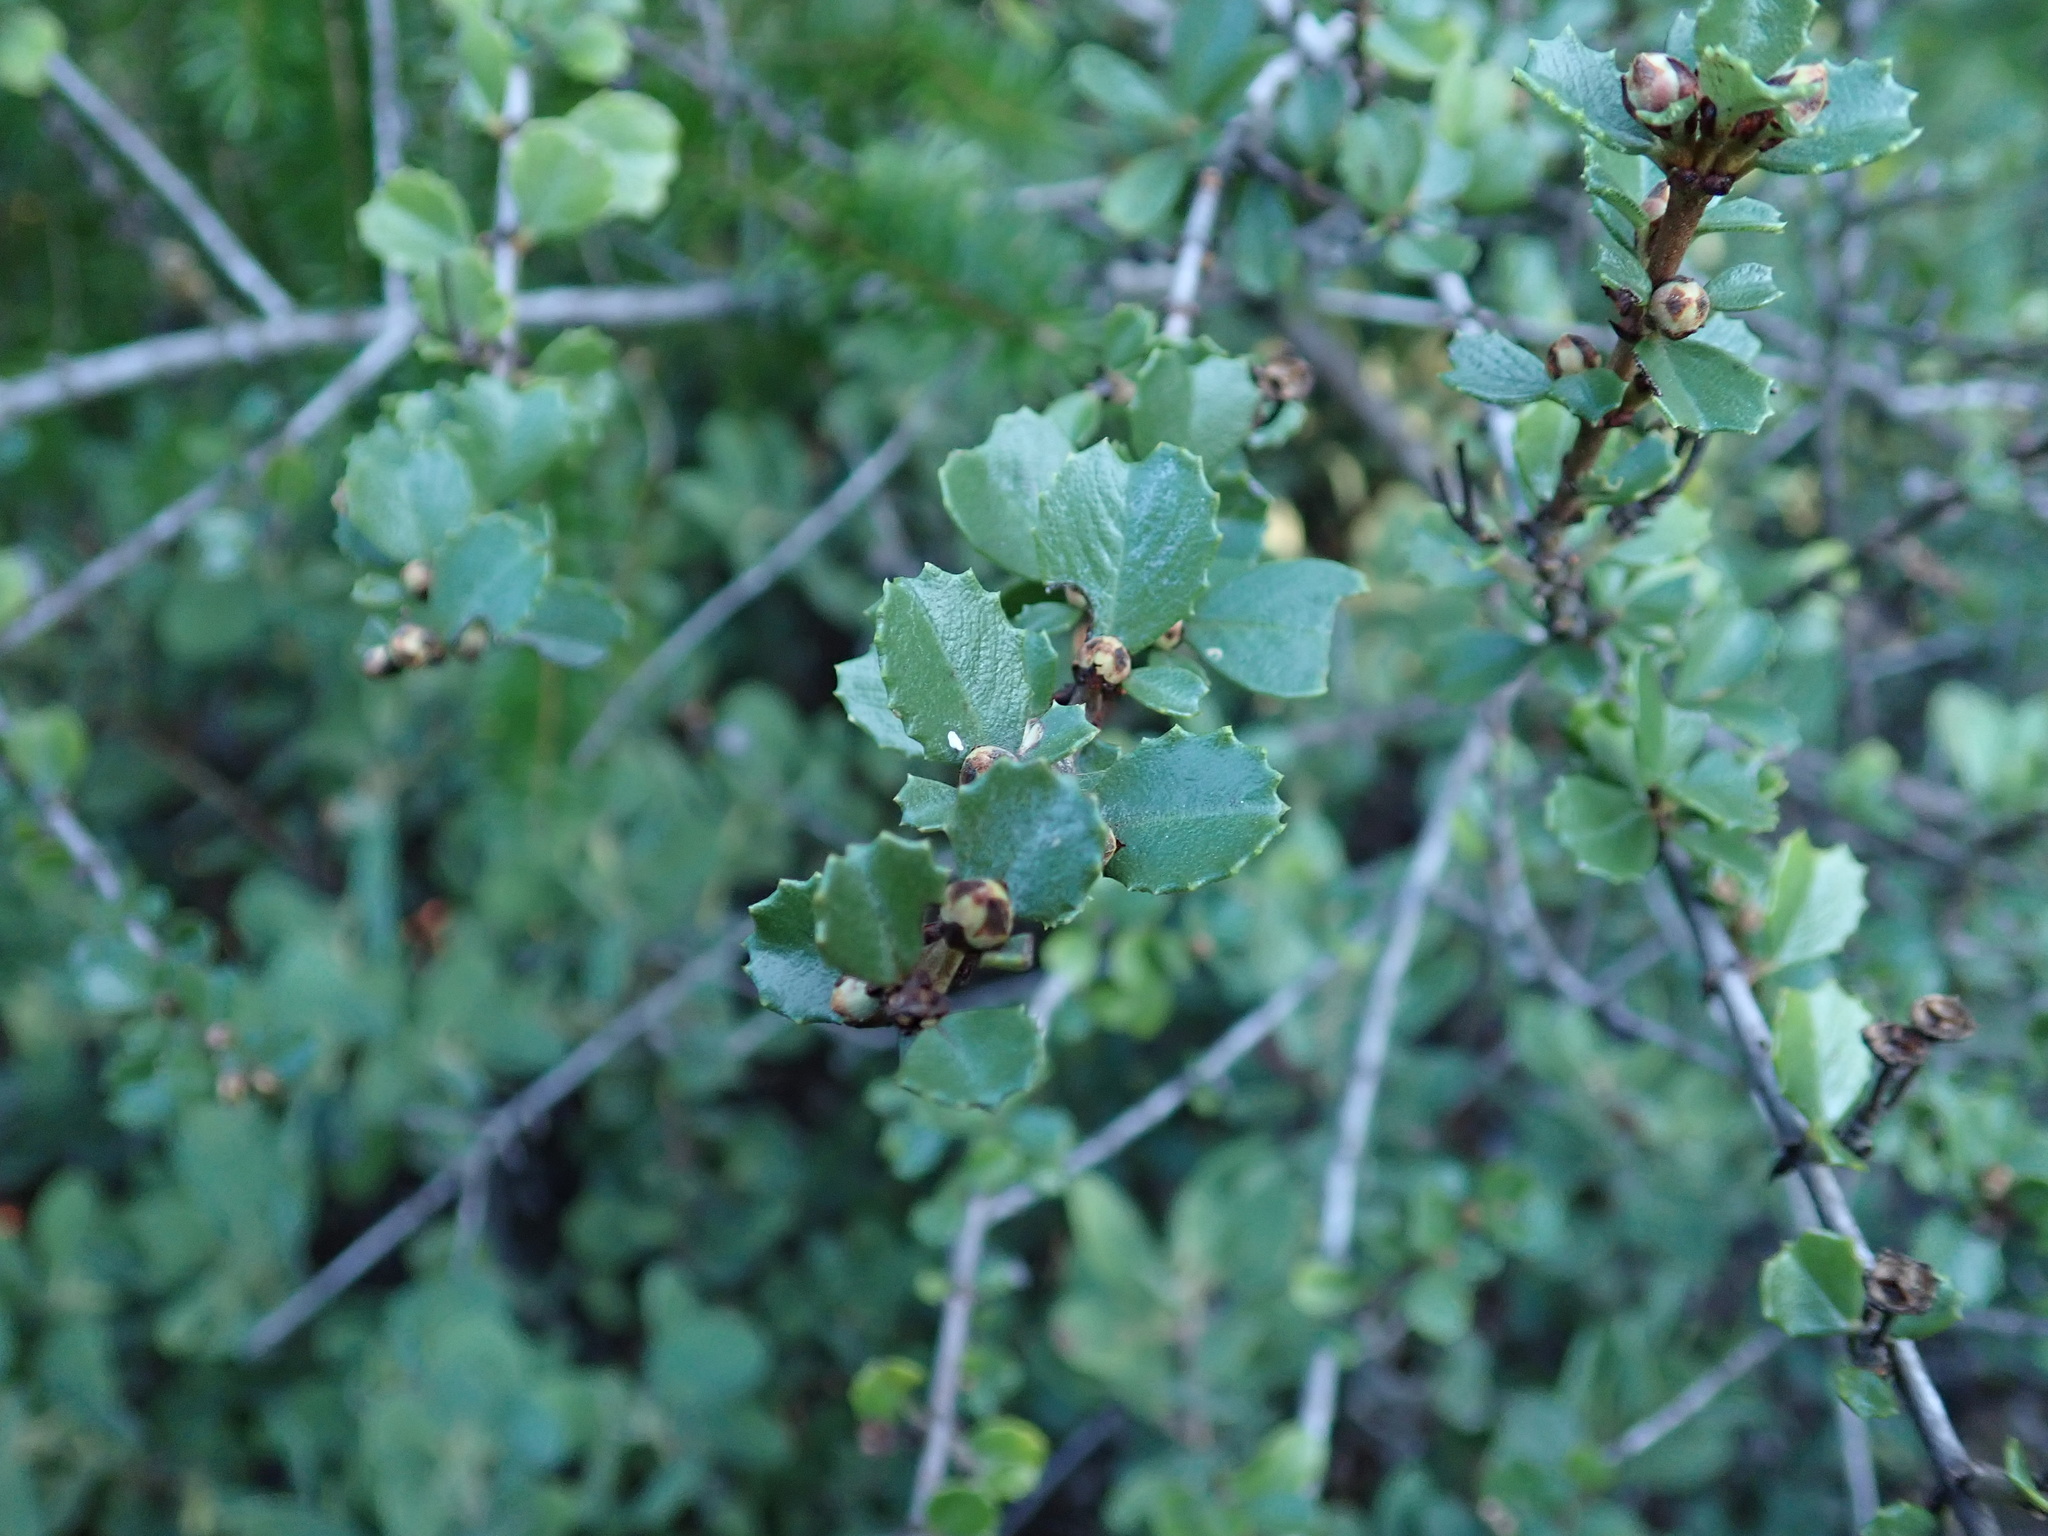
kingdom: Plantae
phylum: Tracheophyta
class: Magnoliopsida
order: Rosales
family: Rhamnaceae
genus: Ceanothus
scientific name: Ceanothus masonii
